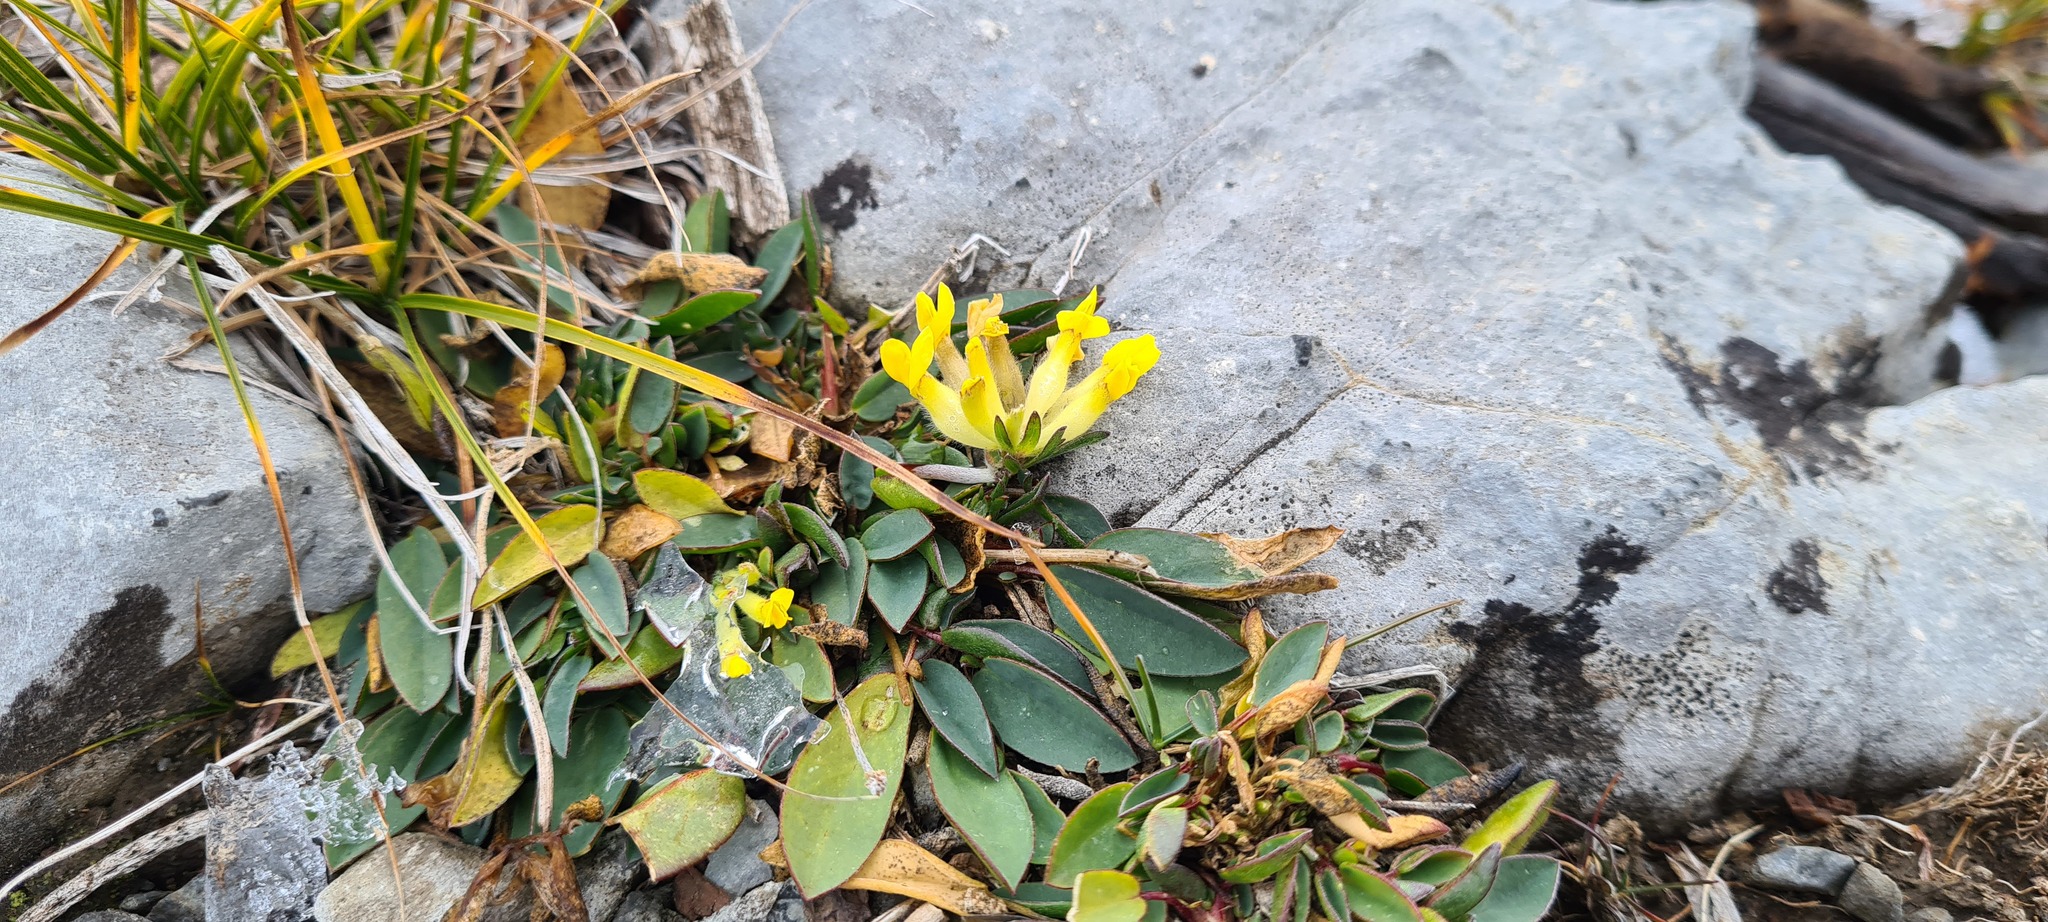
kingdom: Plantae
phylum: Tracheophyta
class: Magnoliopsida
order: Fabales
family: Fabaceae
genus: Anthyllis
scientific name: Anthyllis vulneraria
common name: Kidney vetch
